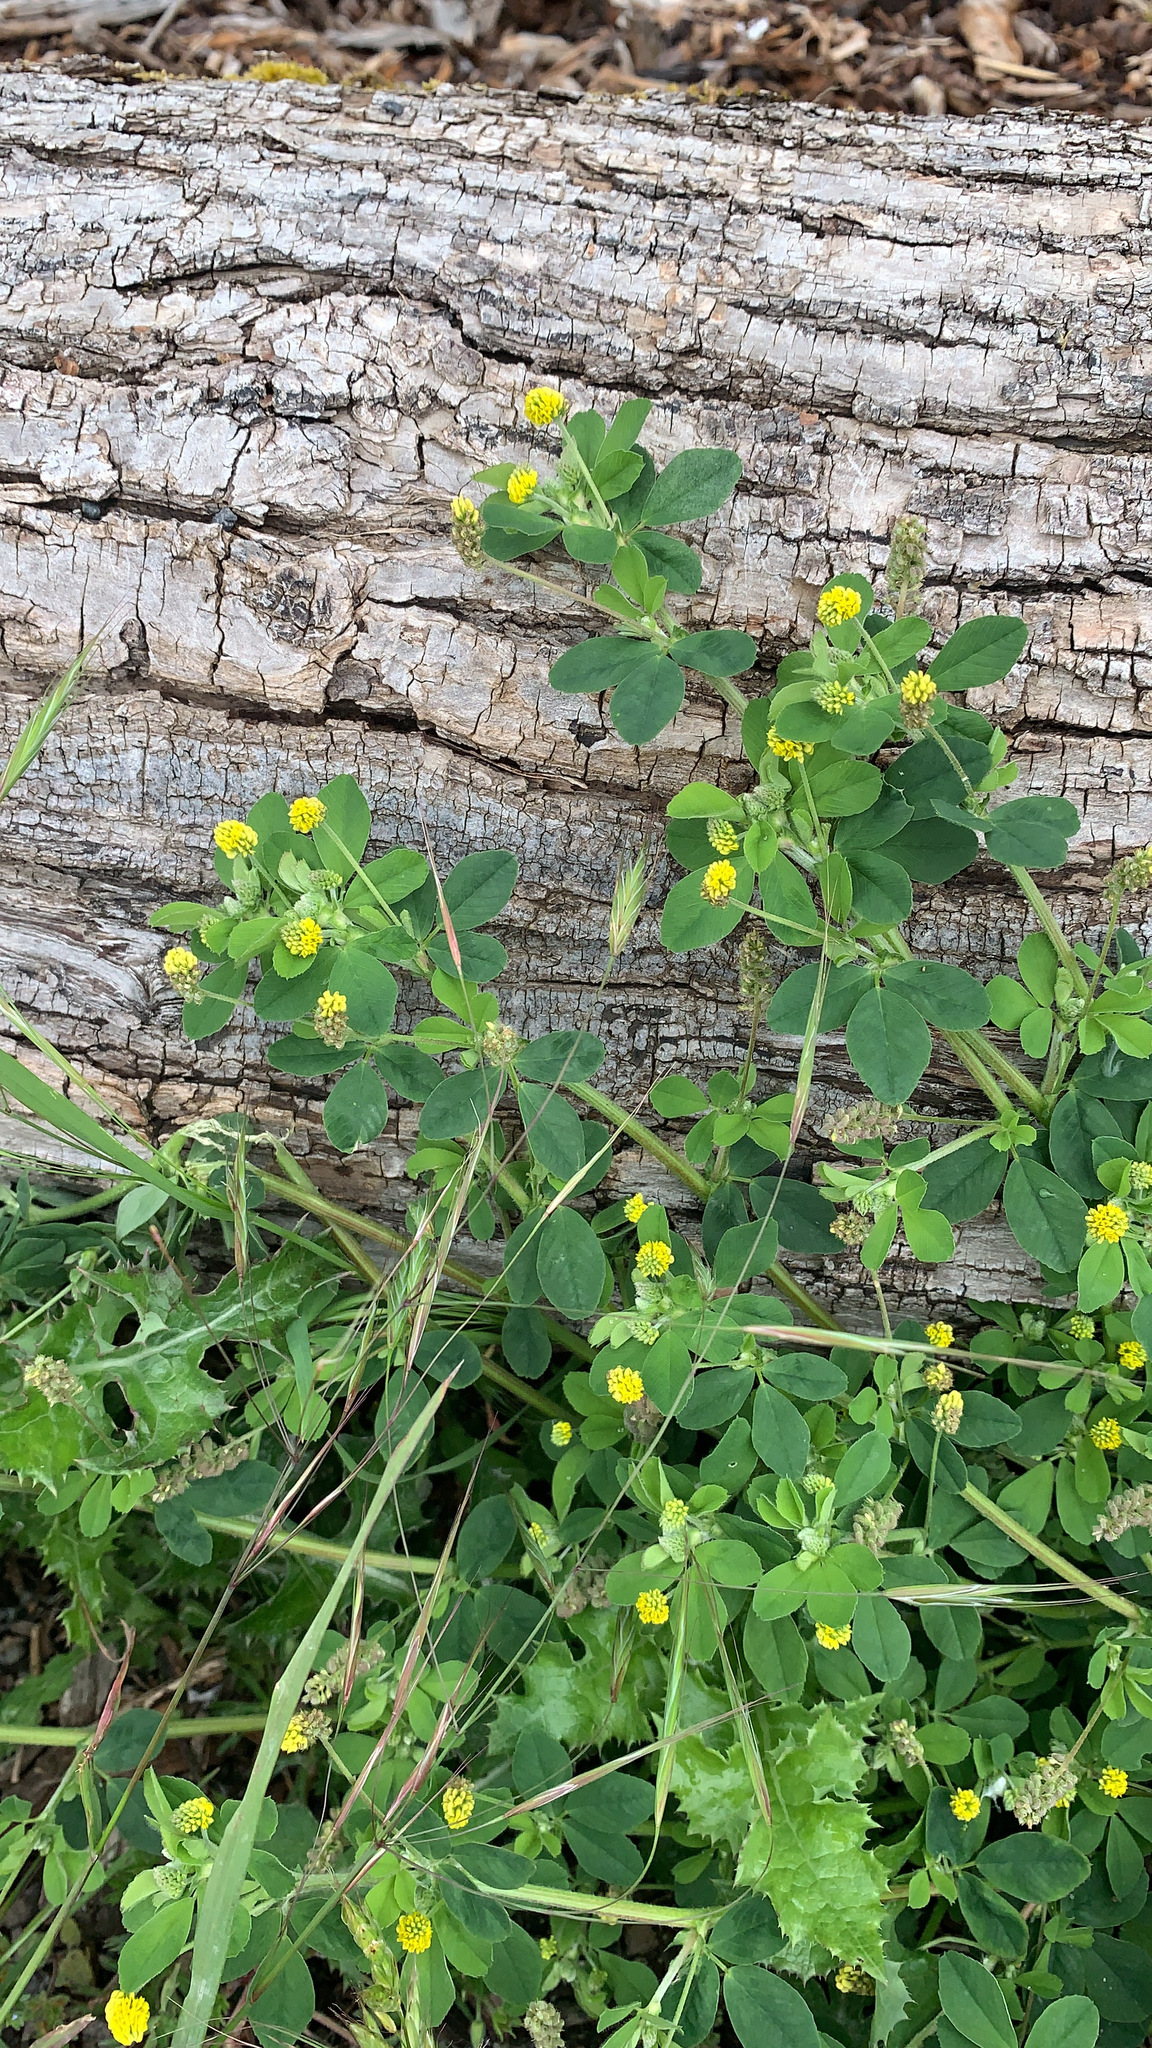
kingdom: Plantae
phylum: Tracheophyta
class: Magnoliopsida
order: Fabales
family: Fabaceae
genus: Medicago
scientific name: Medicago lupulina
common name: Black medick
